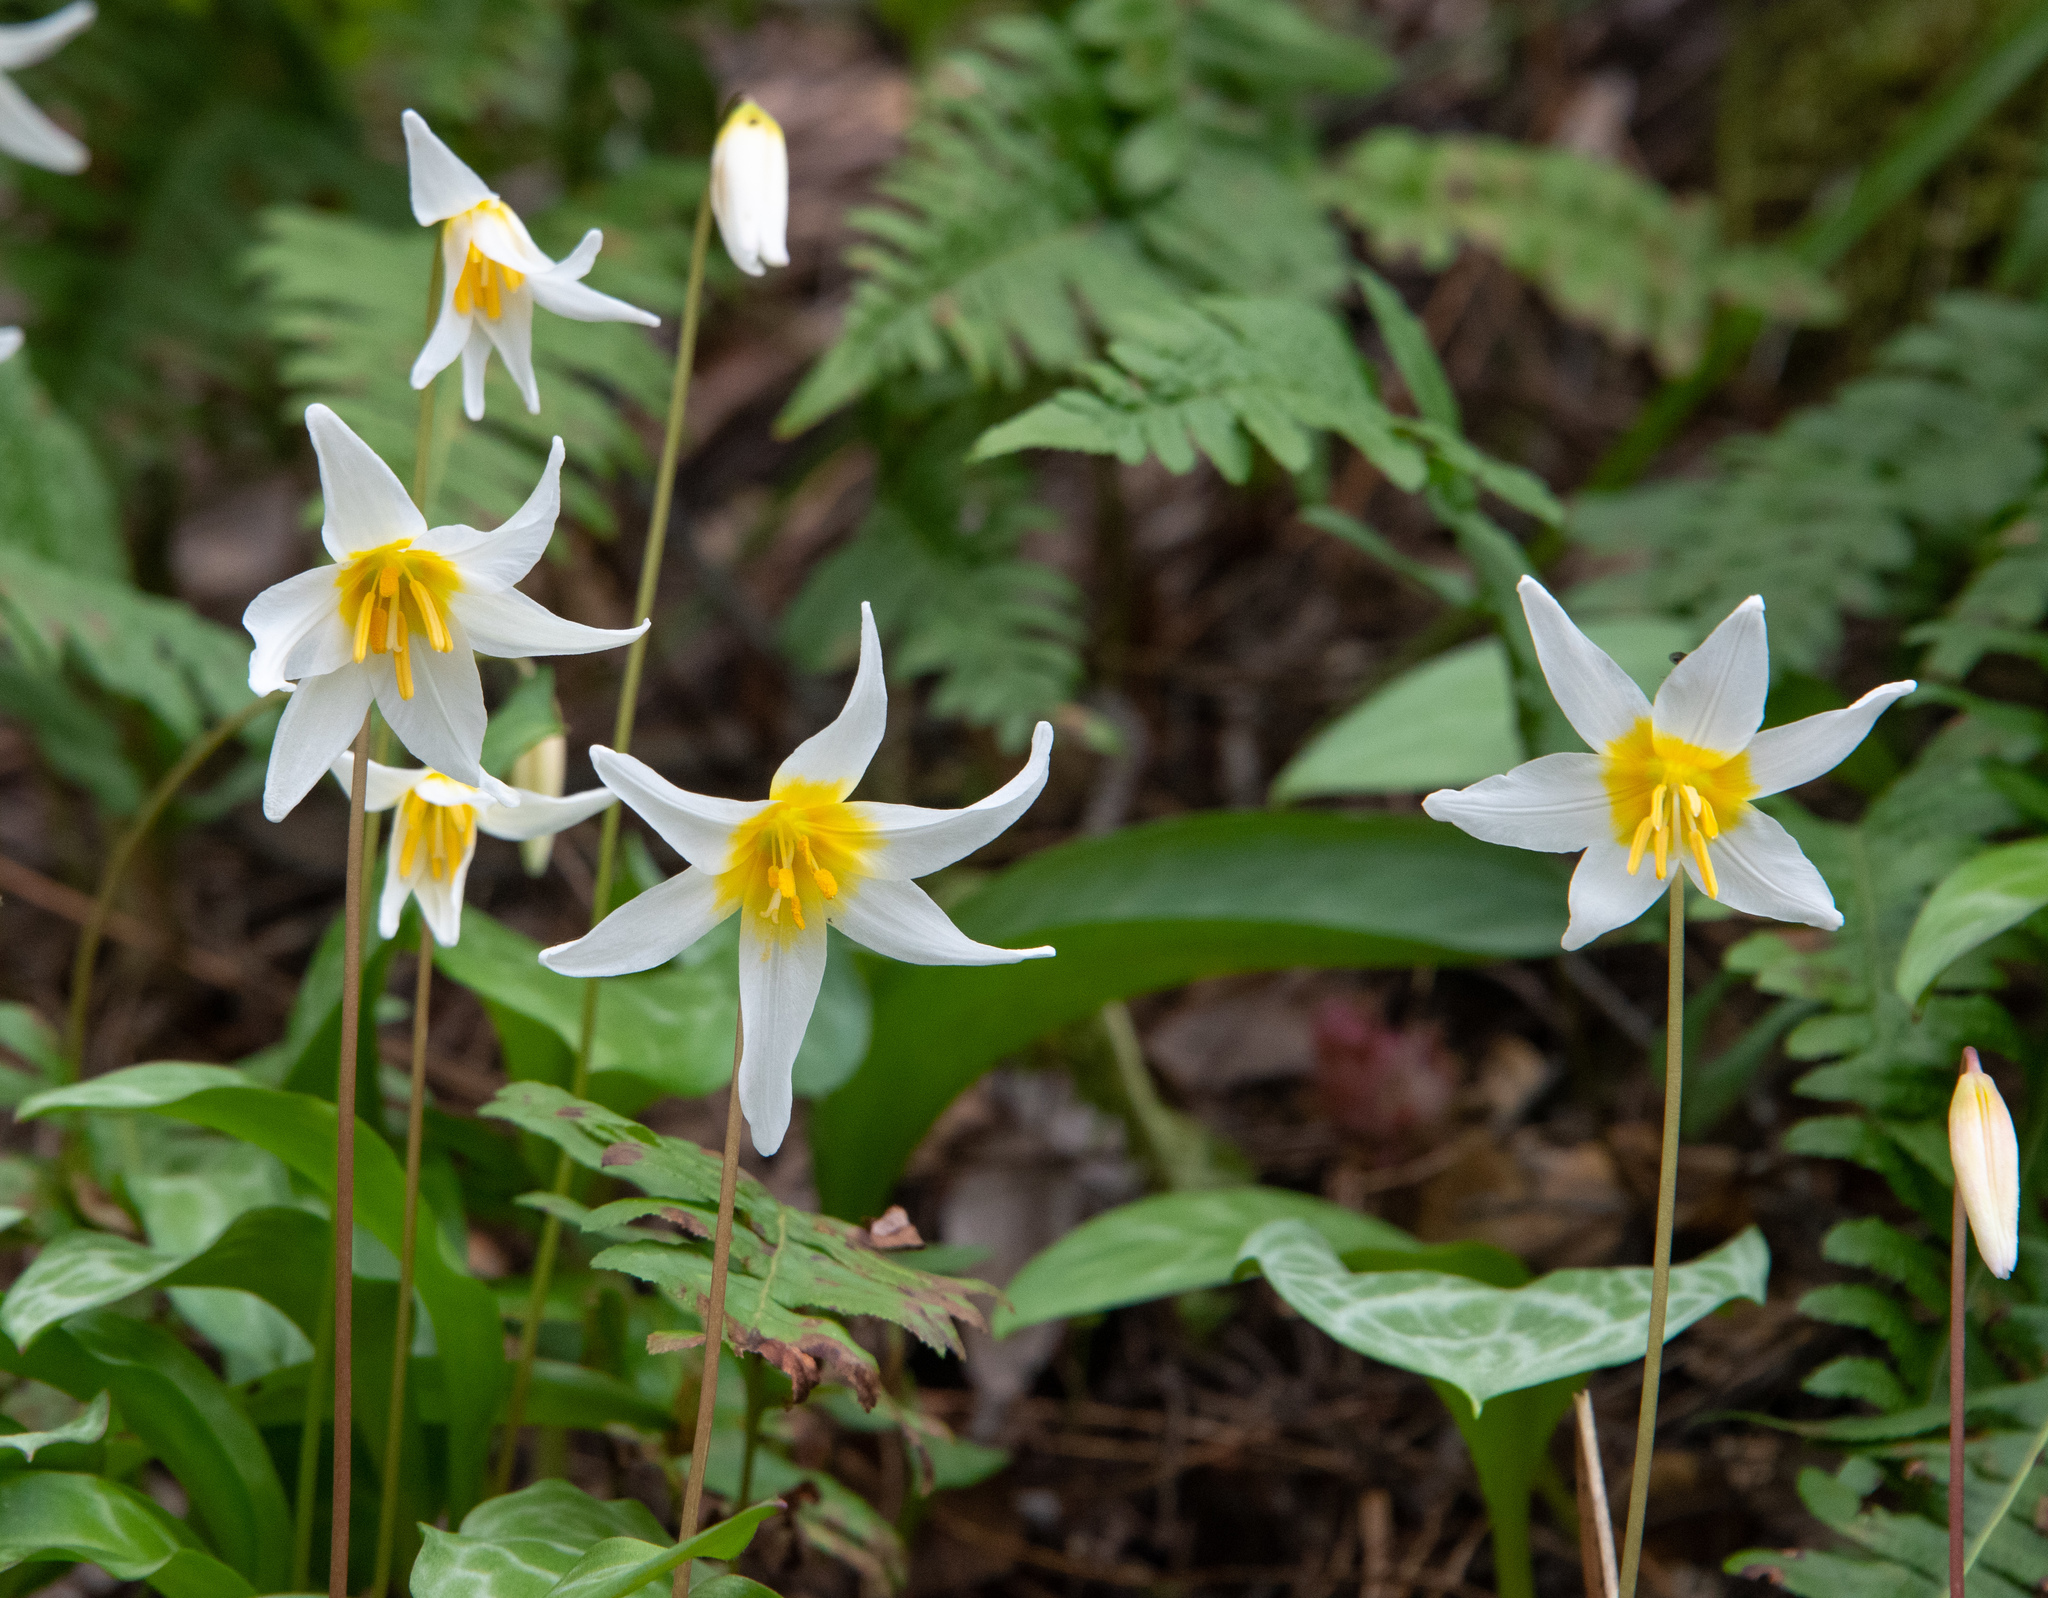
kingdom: Plantae
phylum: Tracheophyta
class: Liliopsida
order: Liliales
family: Liliaceae
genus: Erythronium
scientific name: Erythronium helenae
